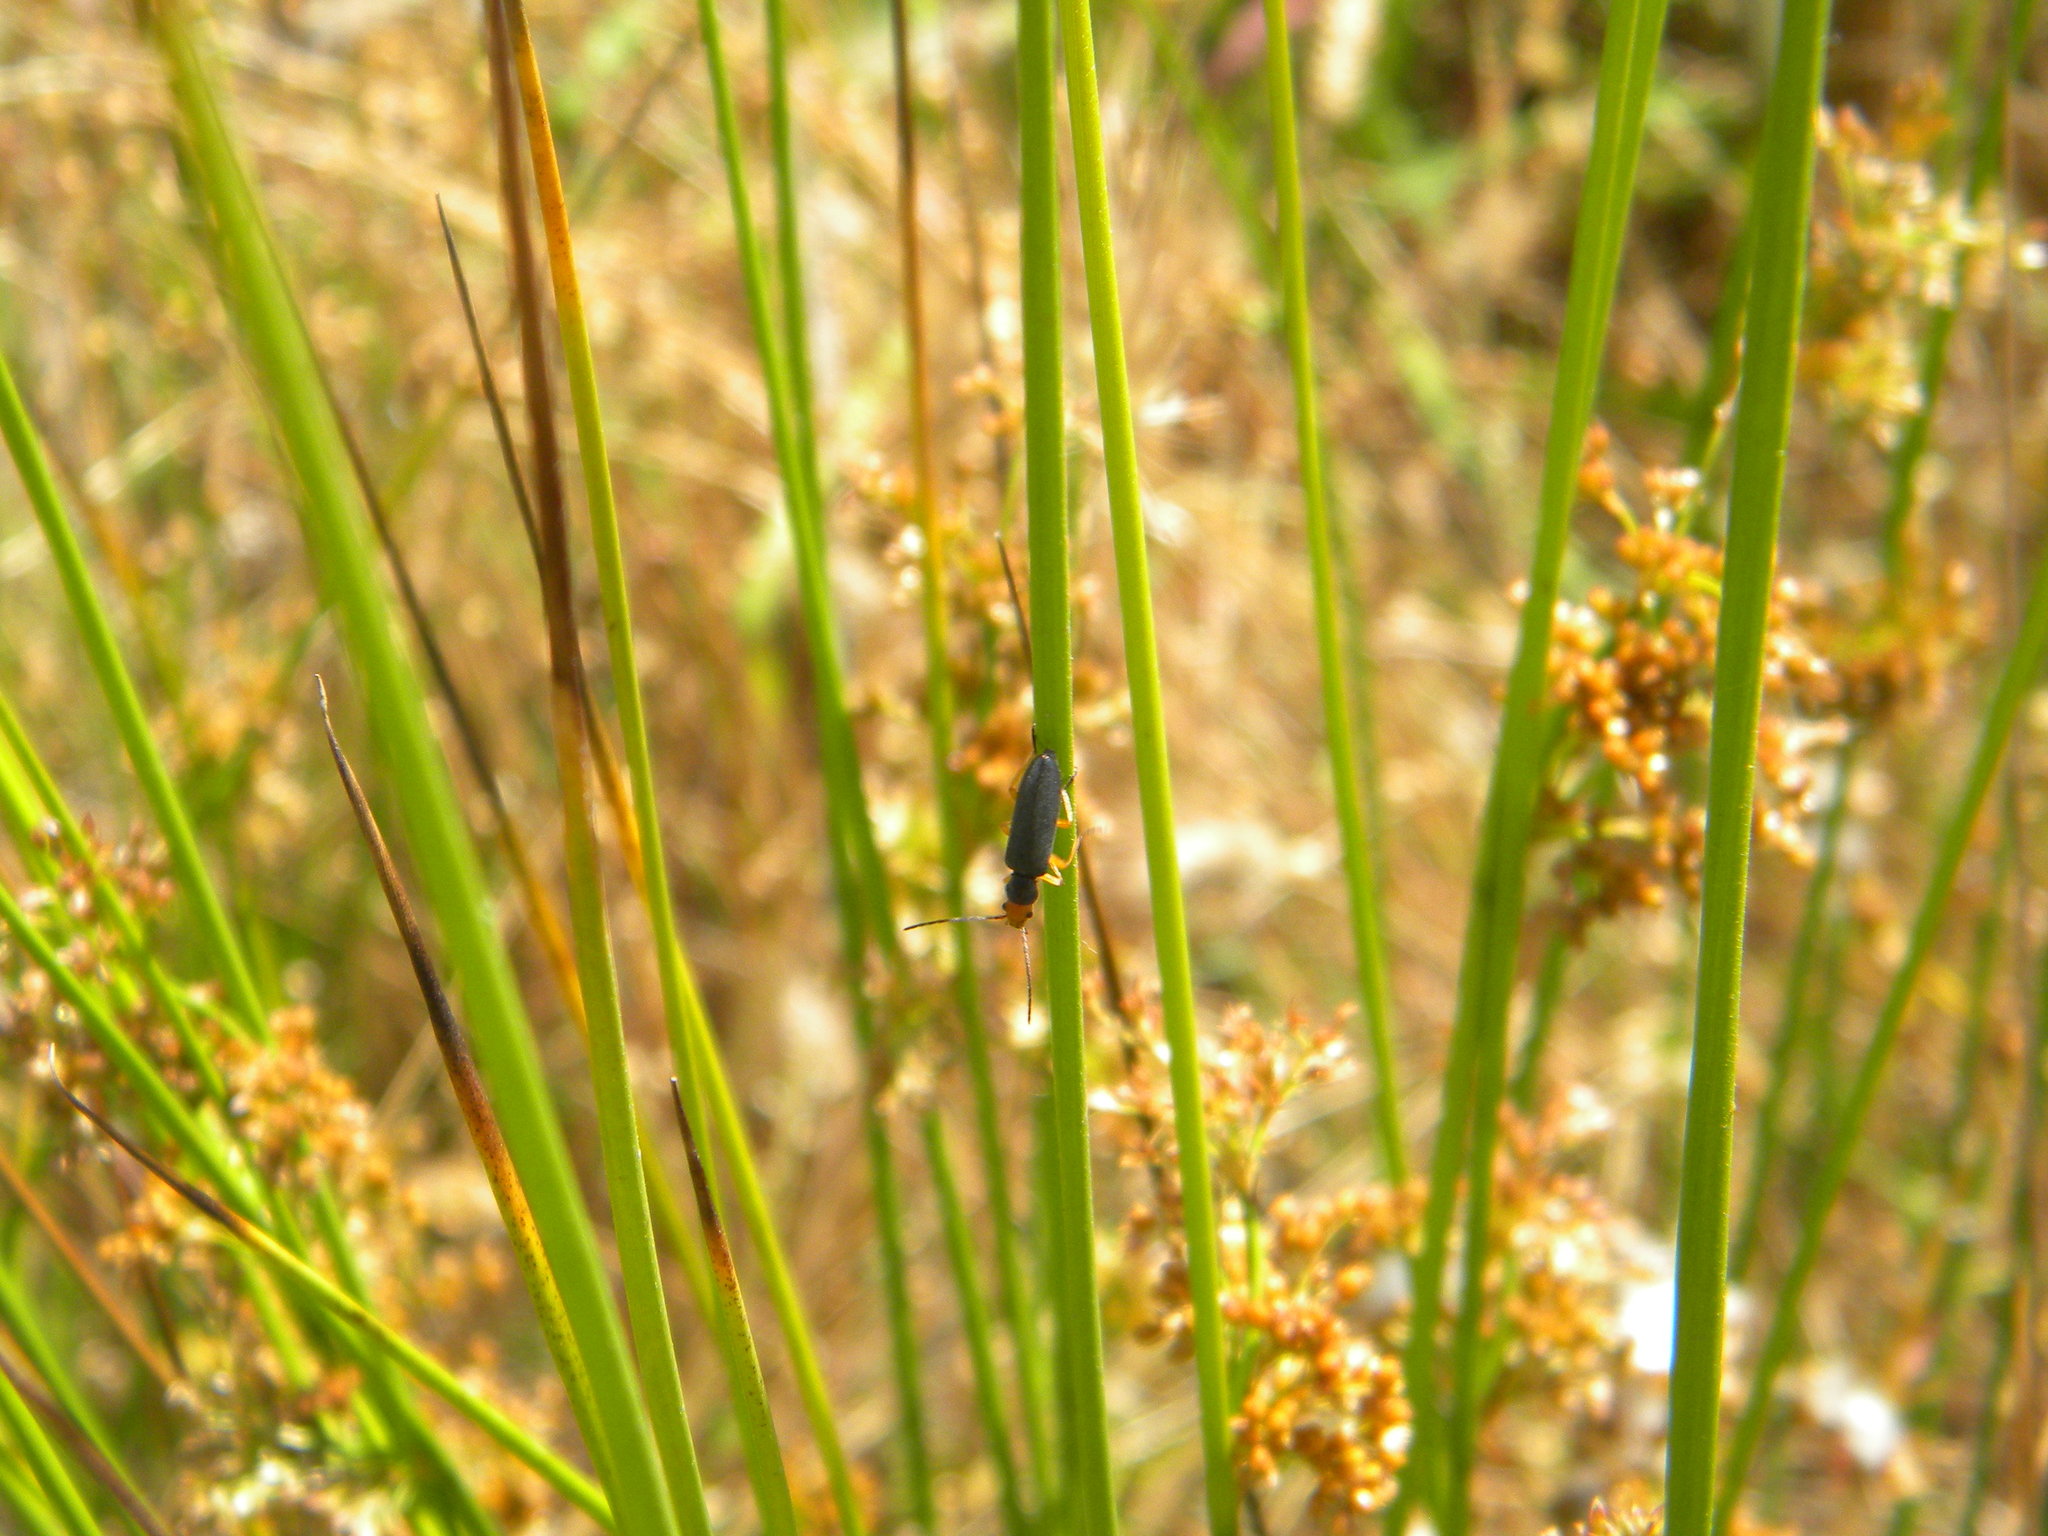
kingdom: Animalia
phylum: Arthropoda
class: Insecta
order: Coleoptera
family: Oedemeridae
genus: Melananthia
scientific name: Melananthia
